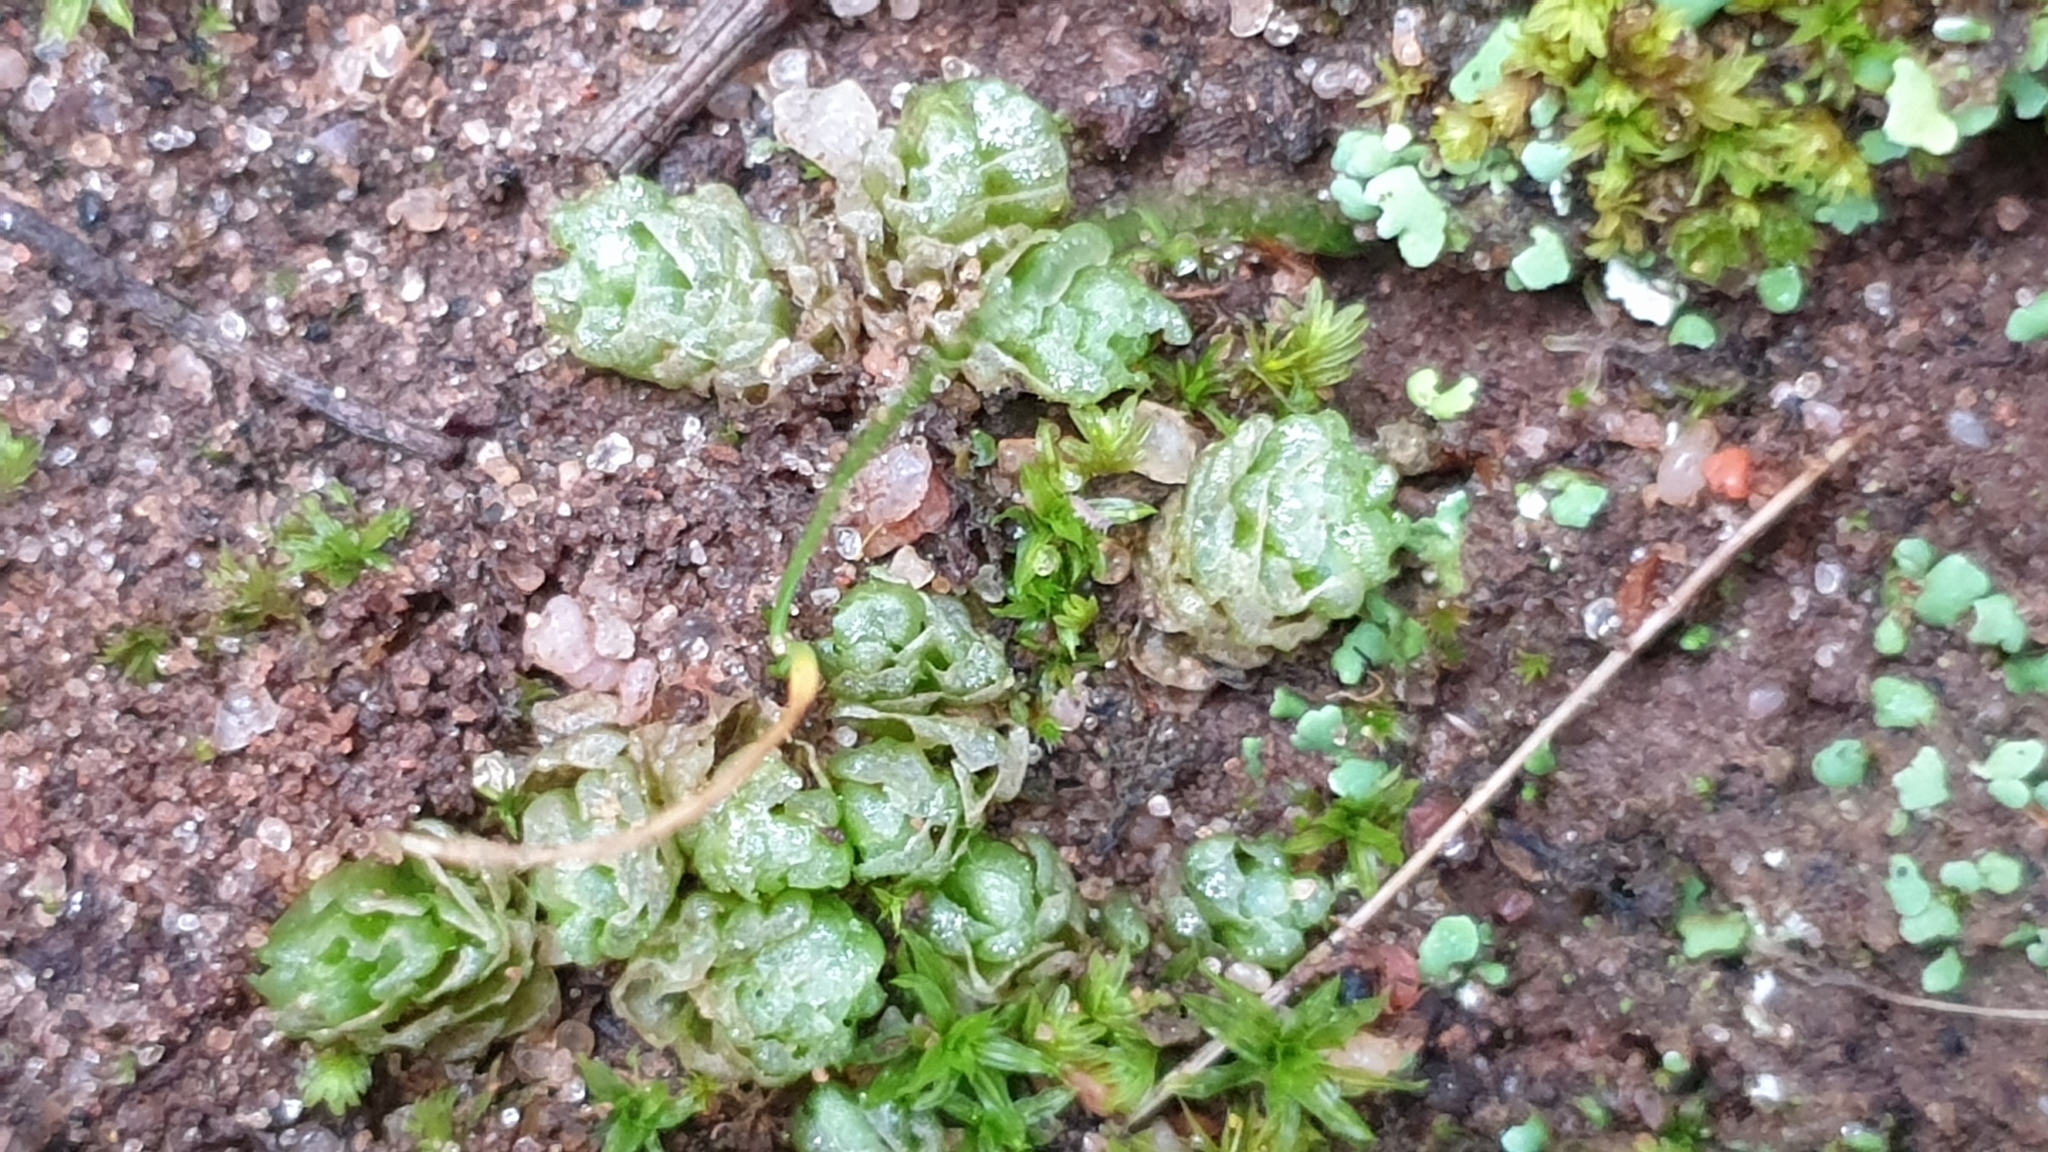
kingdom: Plantae
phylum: Marchantiophyta
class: Jungermanniopsida
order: Fossombroniales
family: Fossombroniaceae
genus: Fossombronia
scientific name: Fossombronia intestinalis
